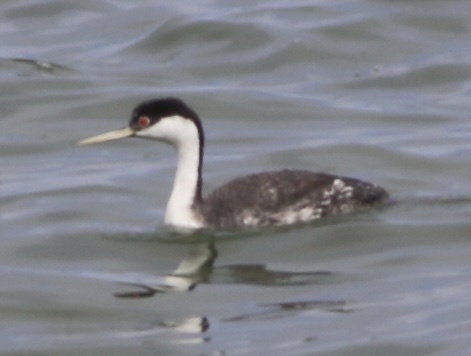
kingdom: Animalia
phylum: Chordata
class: Aves
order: Podicipediformes
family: Podicipedidae
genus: Aechmophorus
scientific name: Aechmophorus occidentalis
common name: Western grebe
